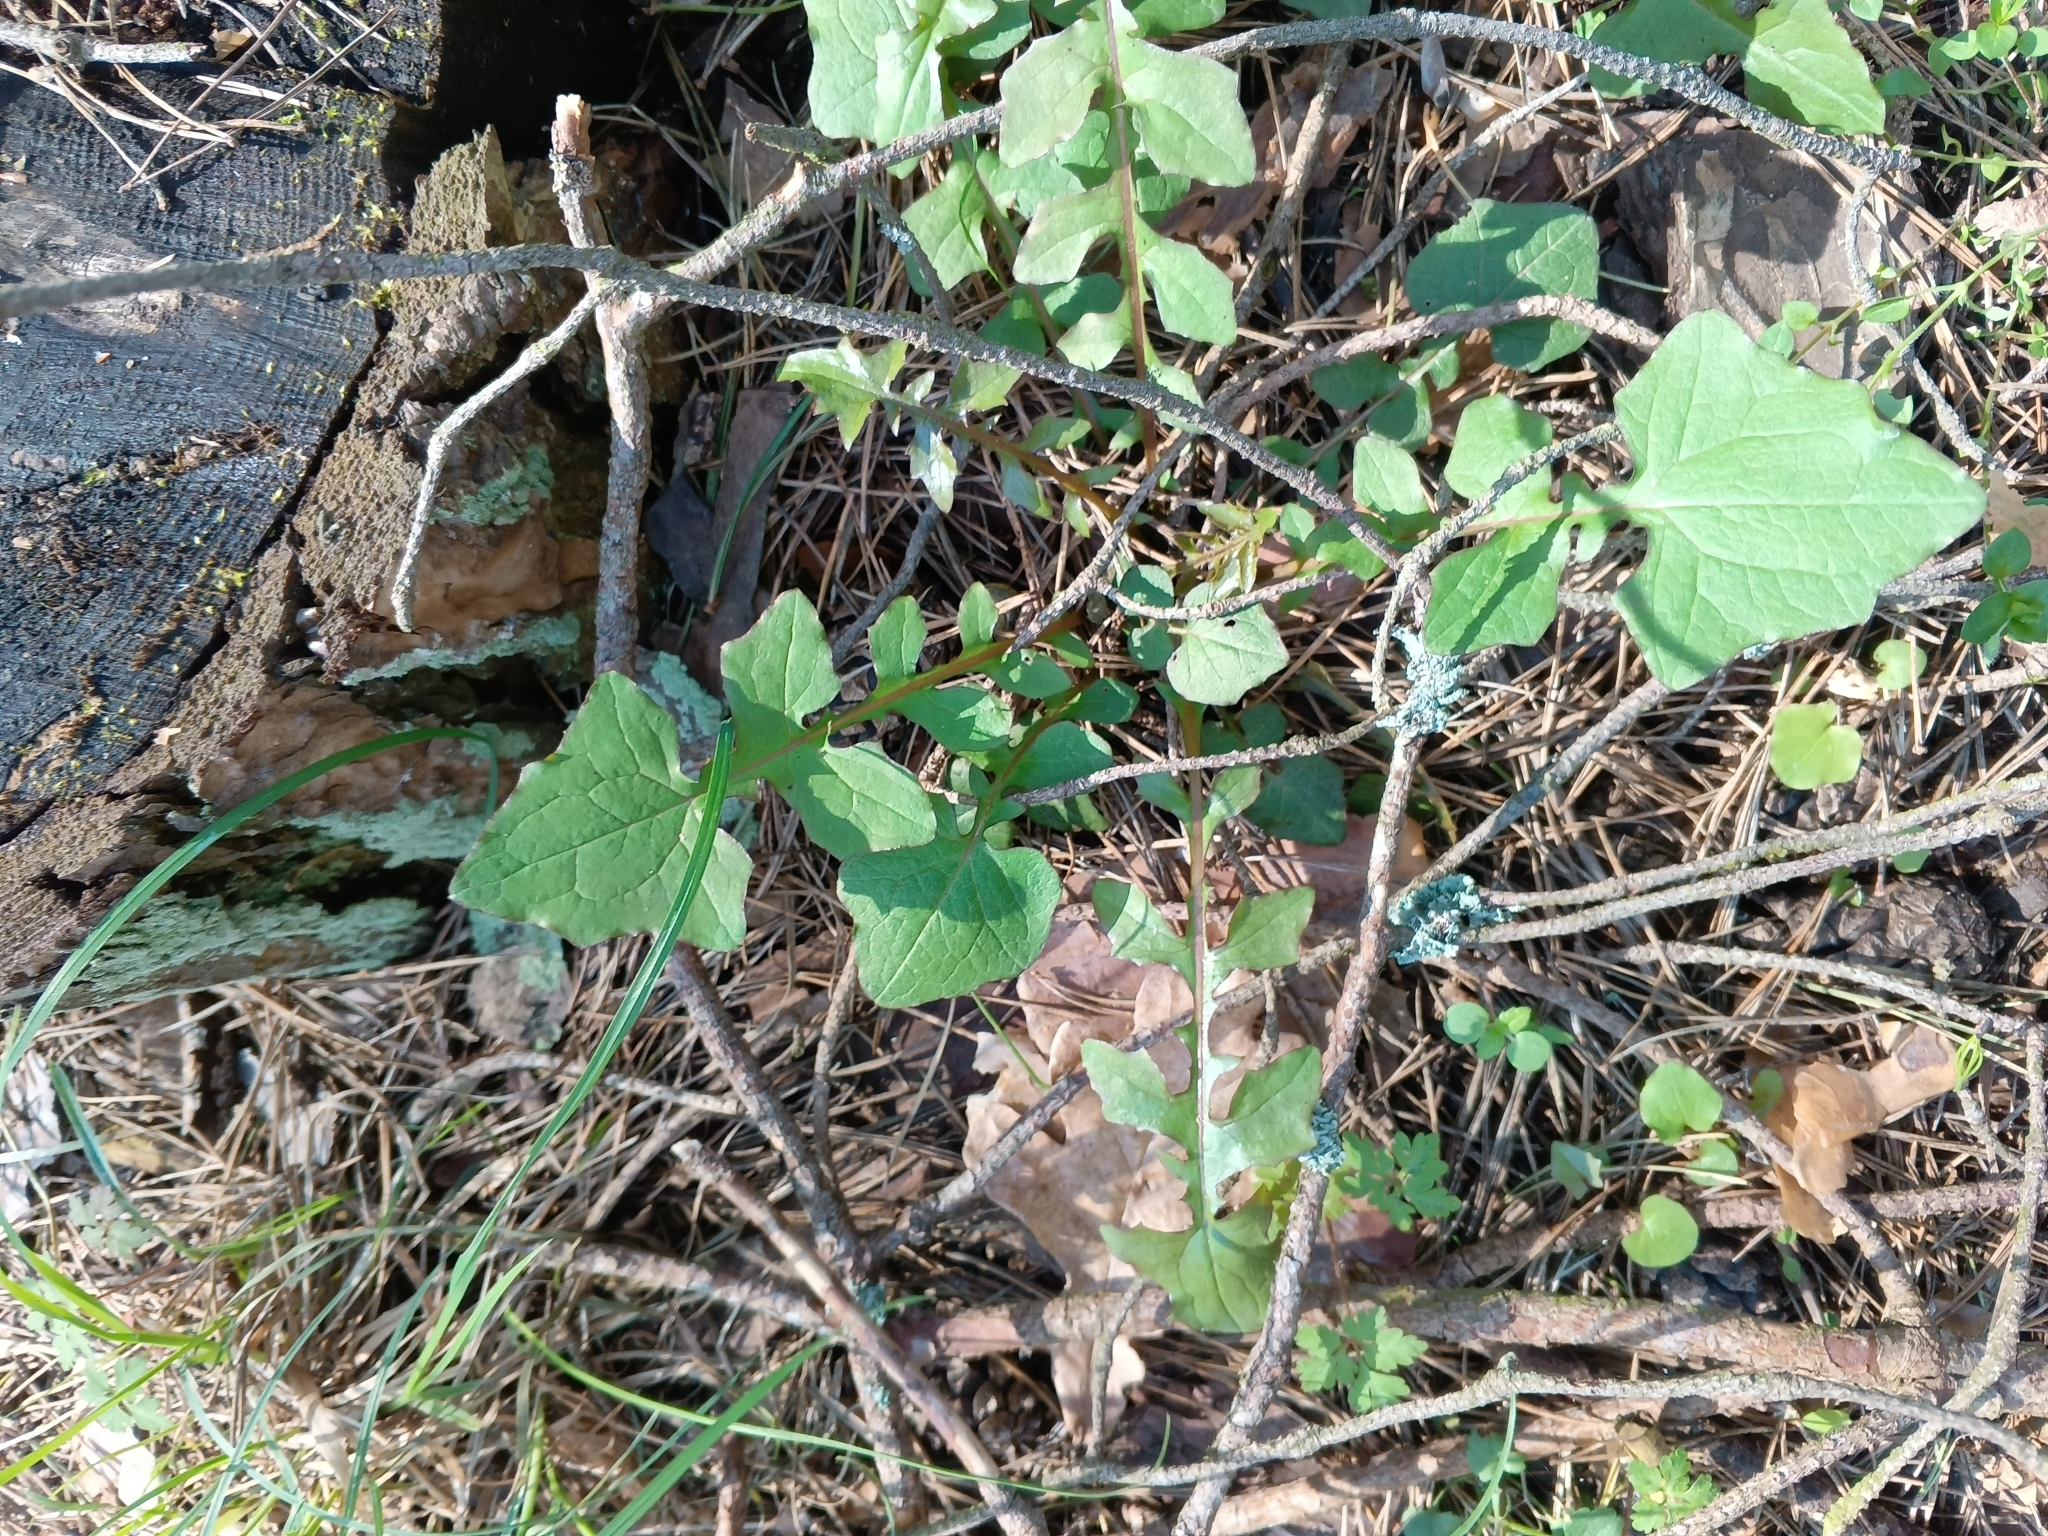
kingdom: Plantae
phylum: Tracheophyta
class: Magnoliopsida
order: Asterales
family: Asteraceae
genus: Mycelis
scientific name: Mycelis muralis
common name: Wall lettuce
